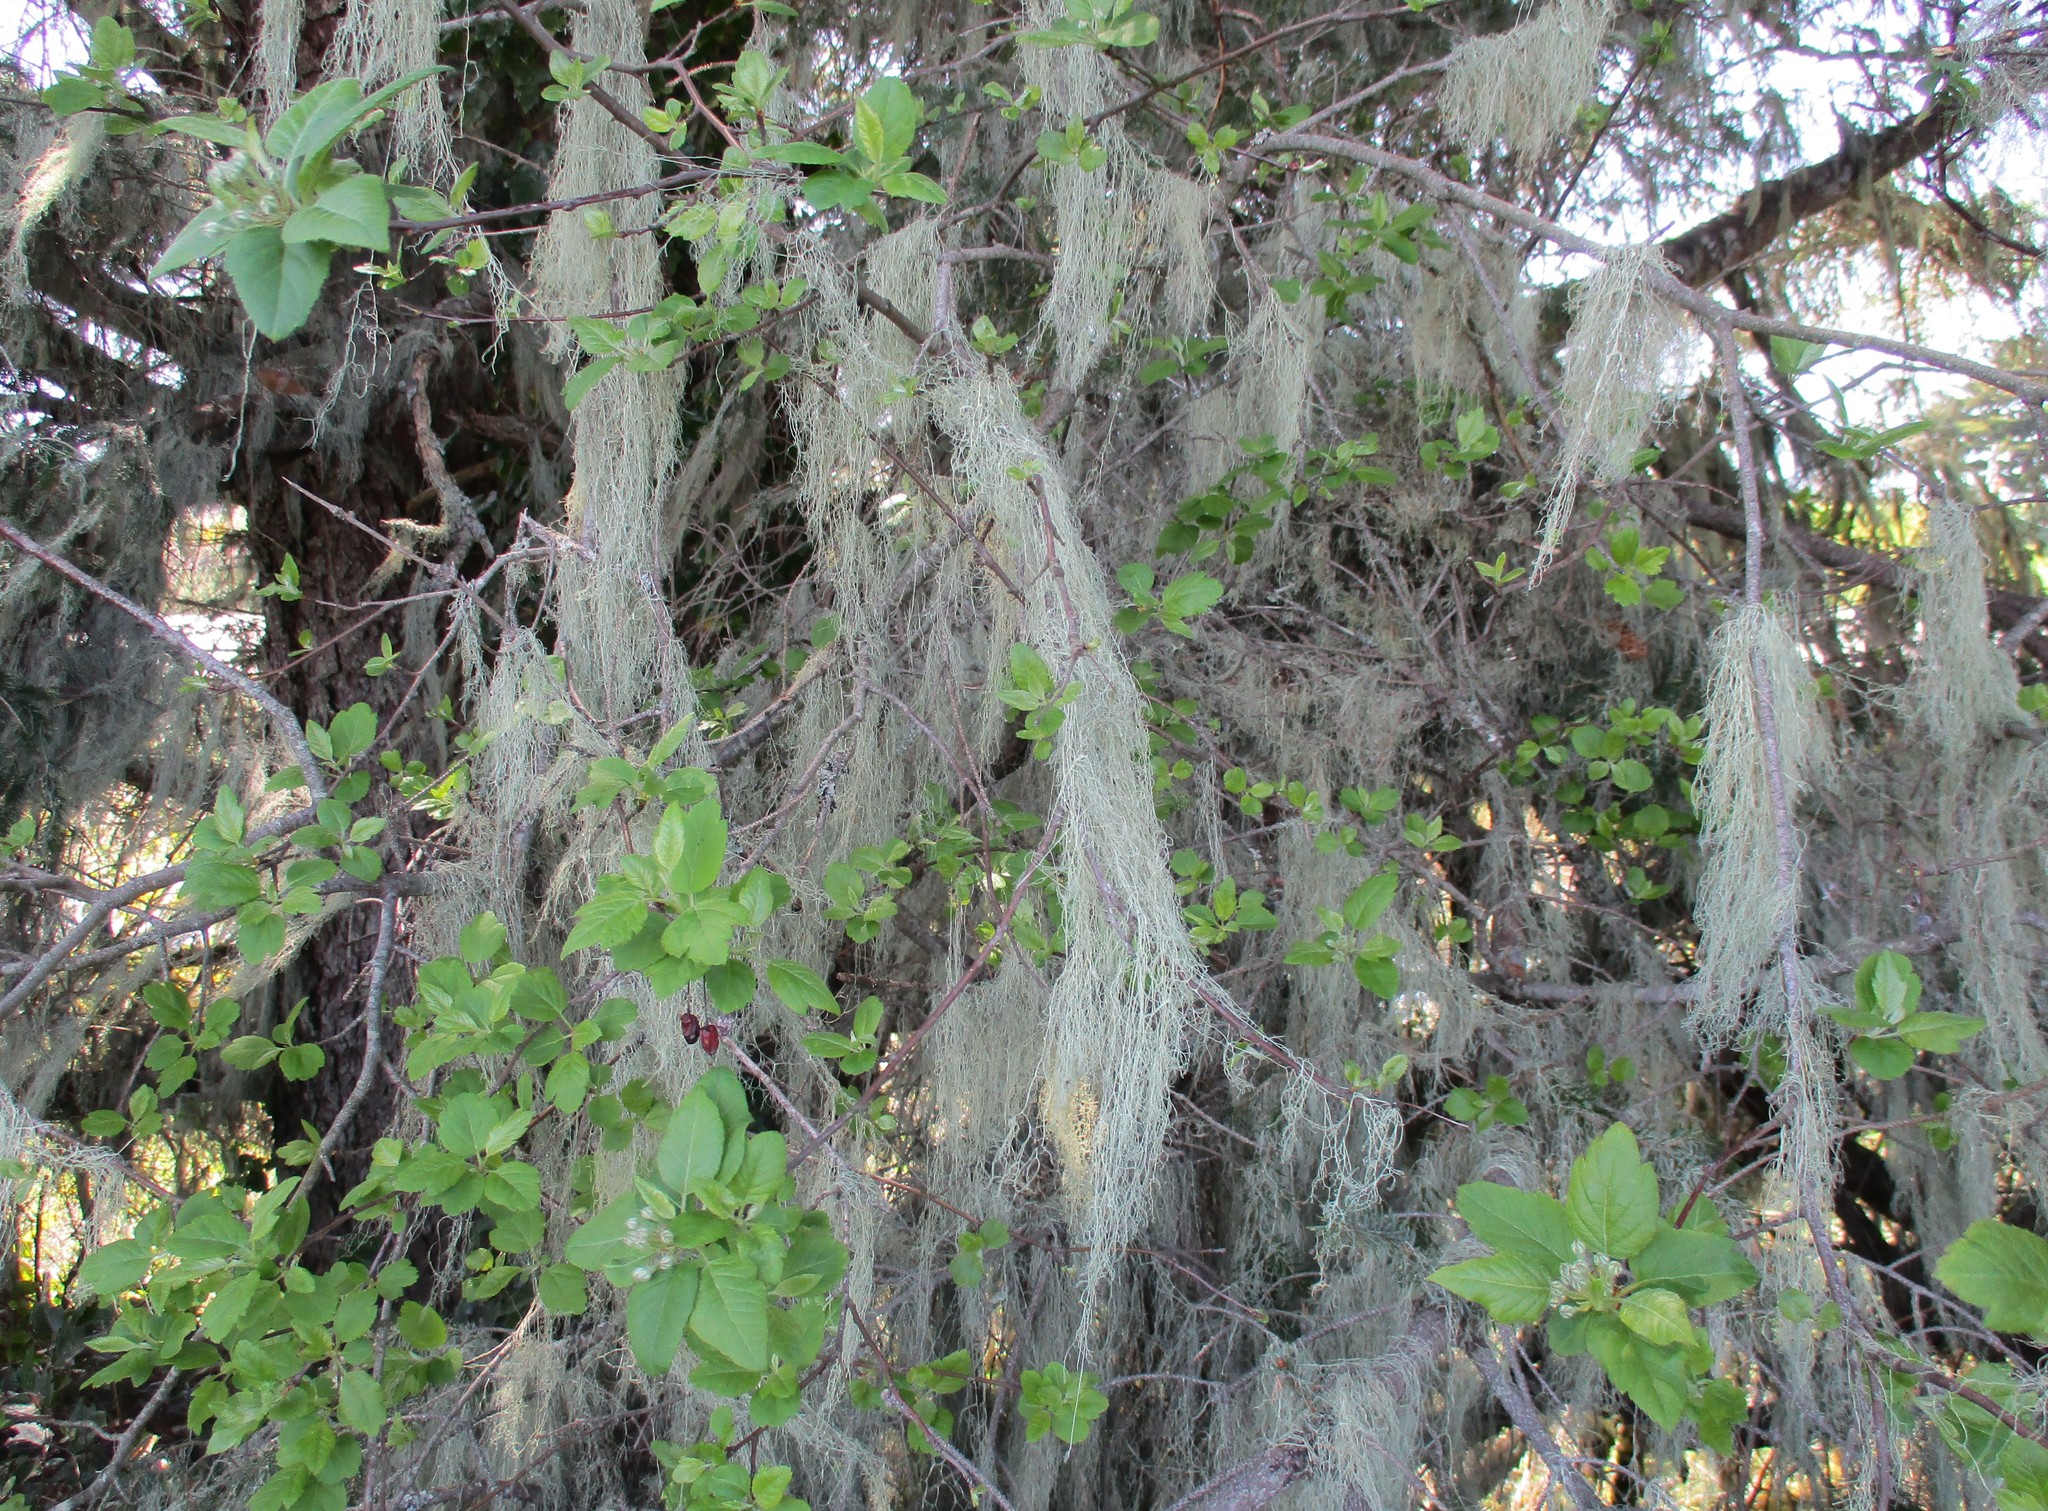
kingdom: Fungi
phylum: Ascomycota
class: Lecanoromycetes
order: Lecanorales
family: Ramalinaceae
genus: Ramalina
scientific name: Ramalina menziesii
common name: Lace lichen
